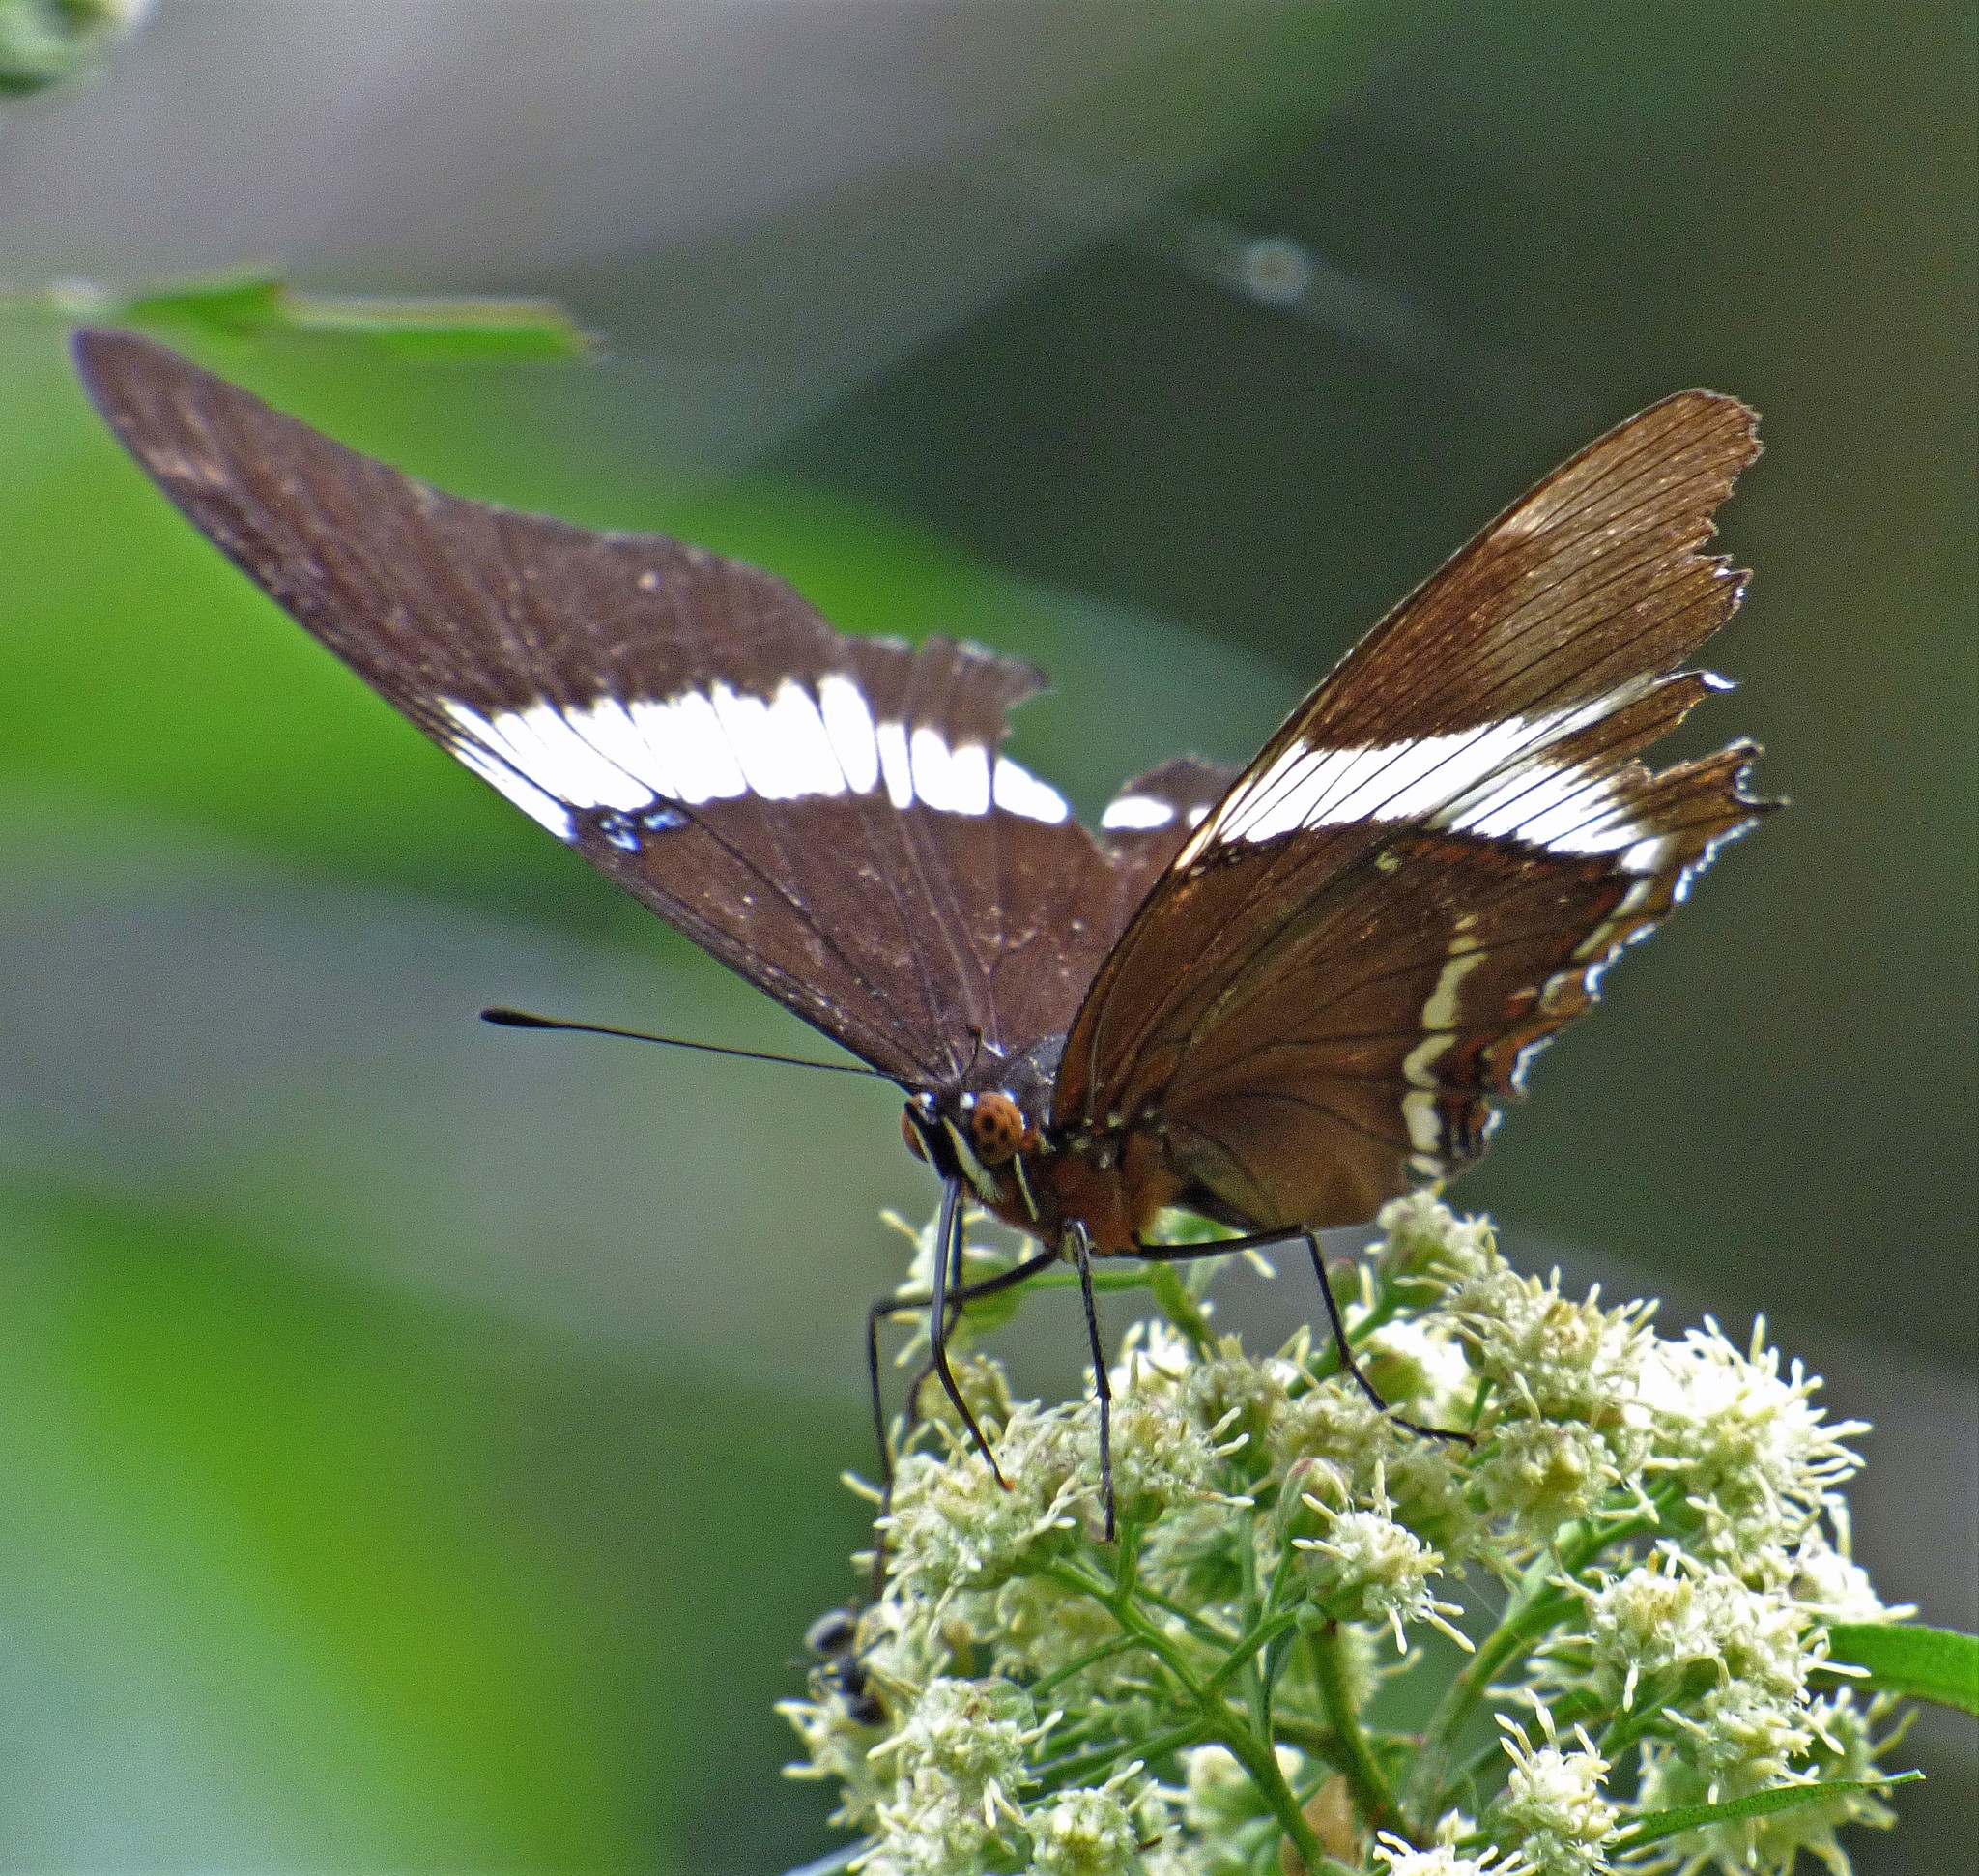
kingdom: Animalia
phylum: Arthropoda
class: Insecta
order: Lepidoptera
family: Nymphalidae
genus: Siproeta
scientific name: Siproeta epaphus
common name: Rusty-tipped page
